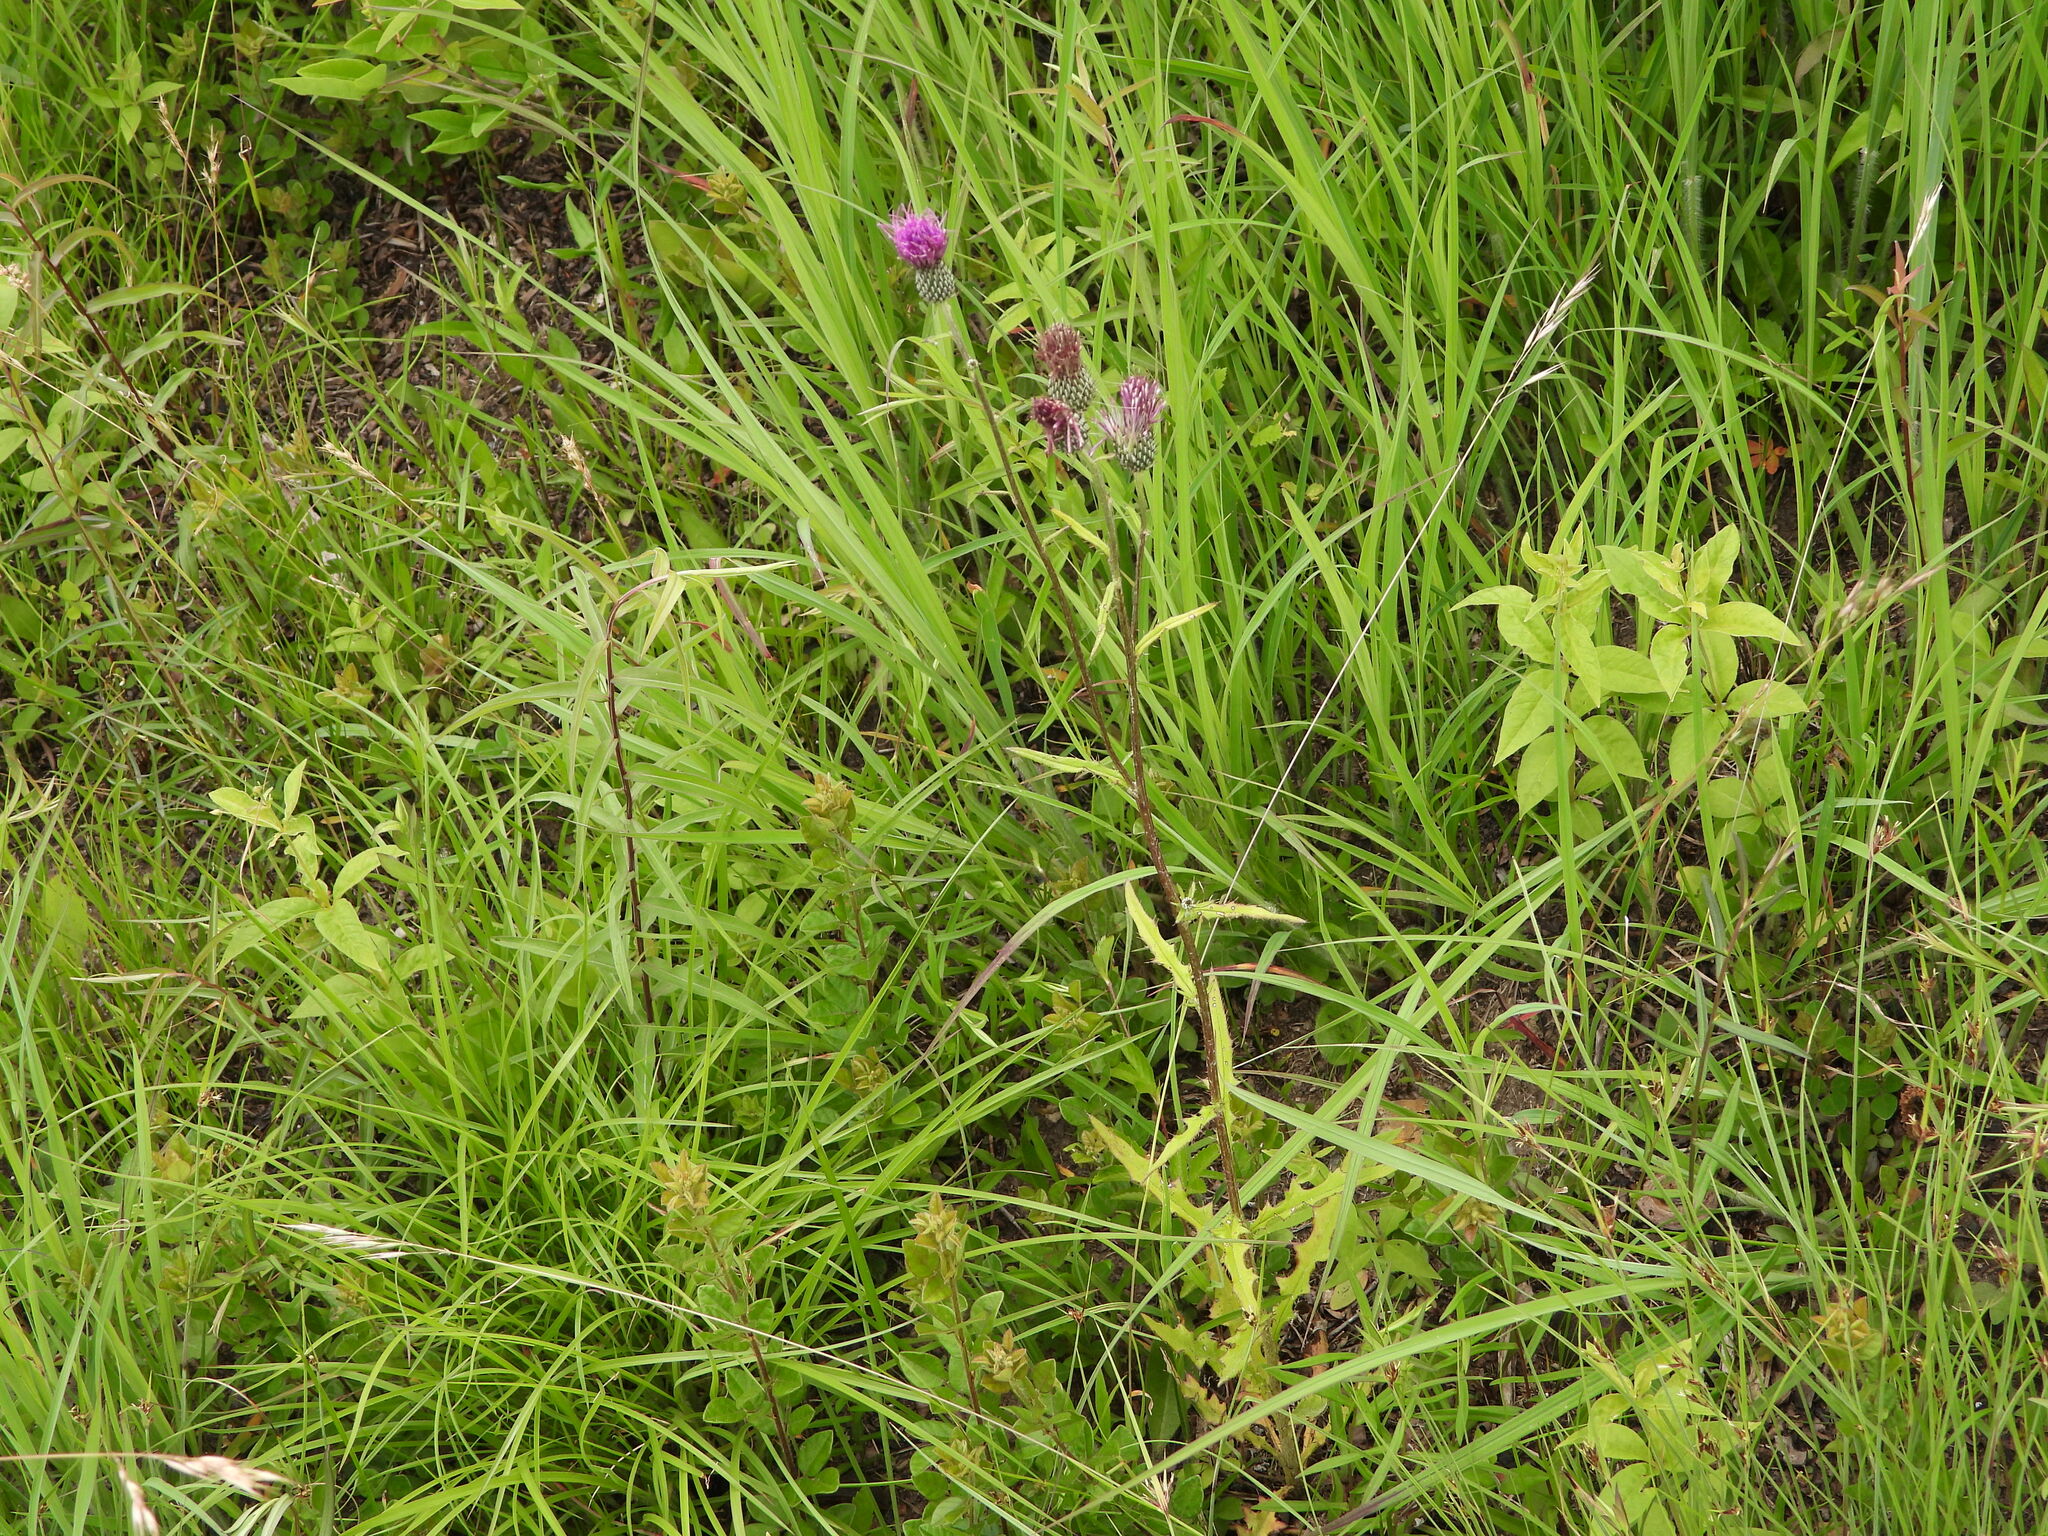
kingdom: Plantae
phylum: Tracheophyta
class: Magnoliopsida
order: Asterales
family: Asteraceae
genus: Cirsium
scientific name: Cirsium carolinianum
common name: Carolina thistle
